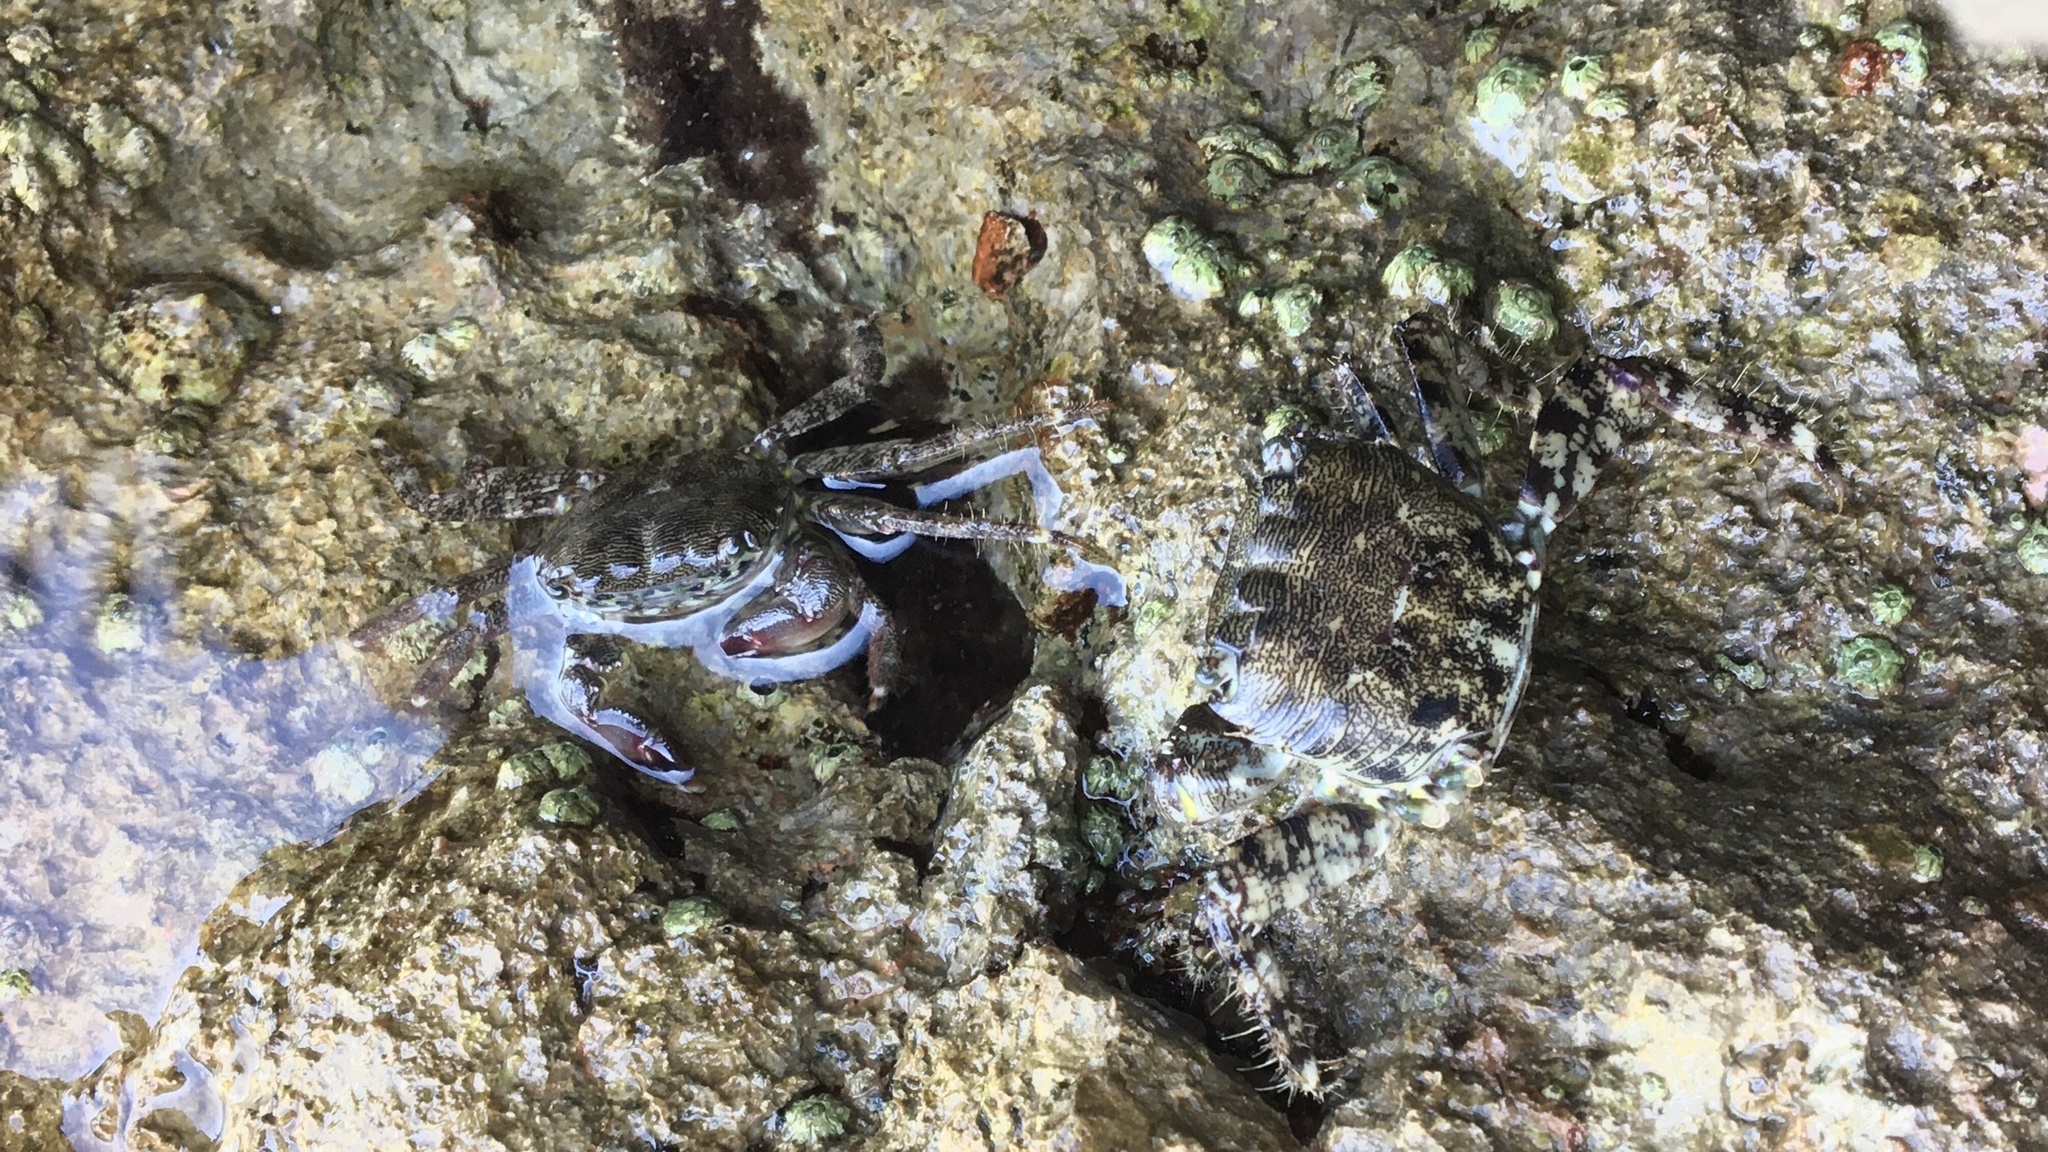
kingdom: Animalia
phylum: Arthropoda
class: Malacostraca
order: Decapoda
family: Grapsidae
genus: Pachygrapsus
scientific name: Pachygrapsus marmoratus
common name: Marbled rock crab
